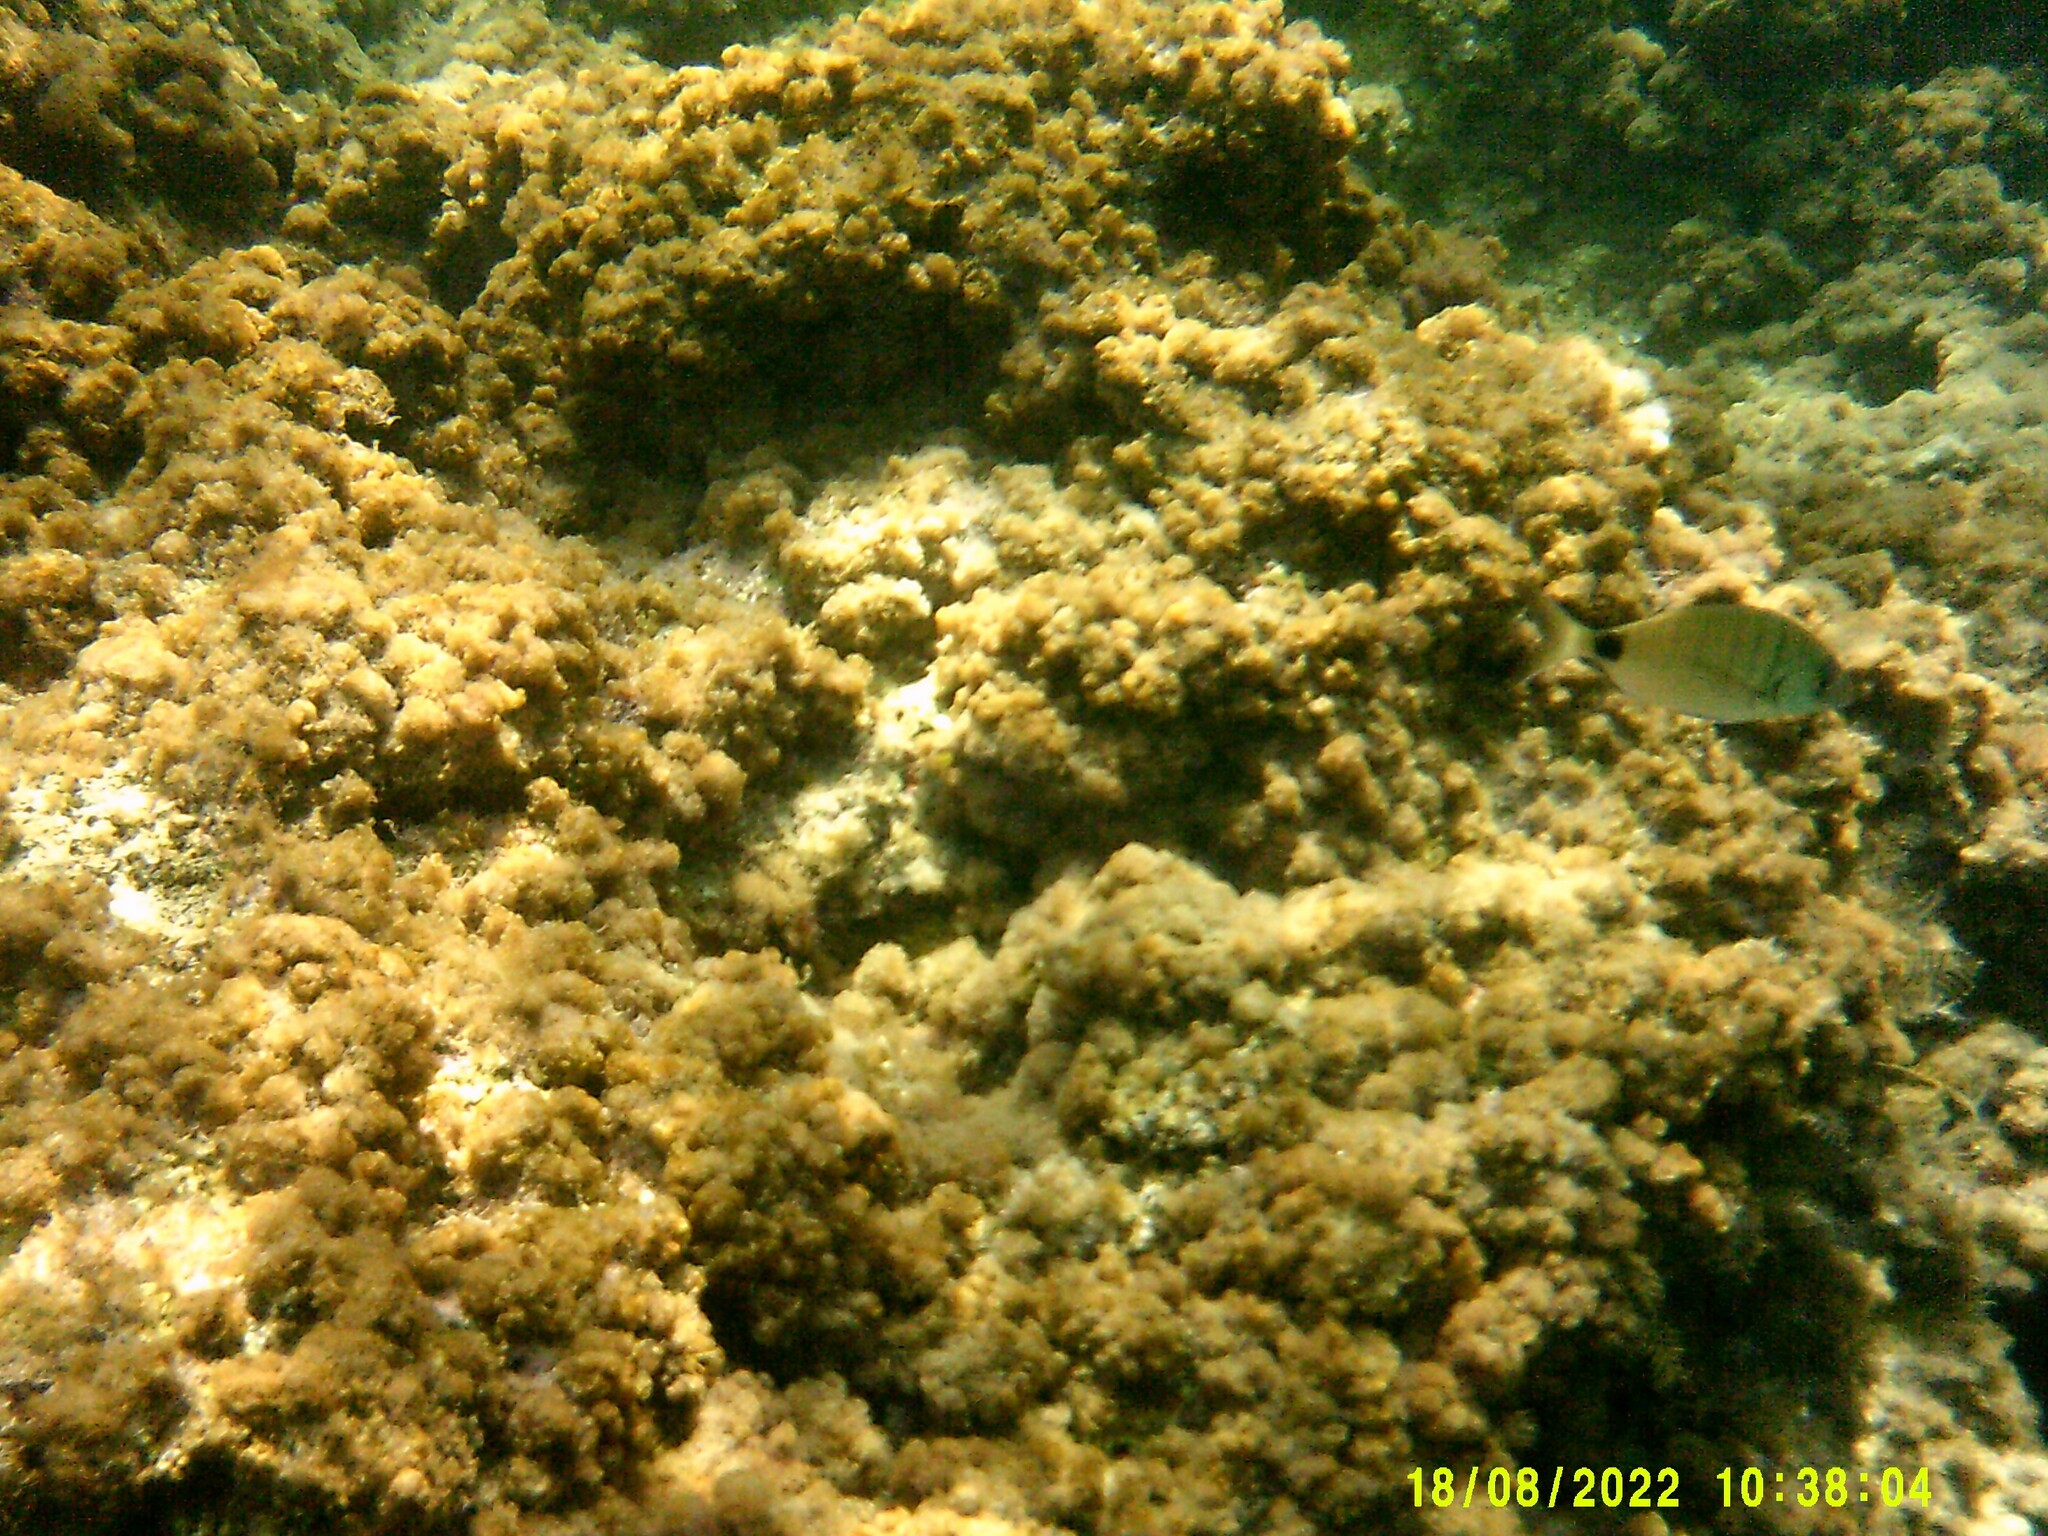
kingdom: Animalia
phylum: Chordata
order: Perciformes
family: Sparidae
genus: Diplodus
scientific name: Diplodus sargus
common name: White seabream
